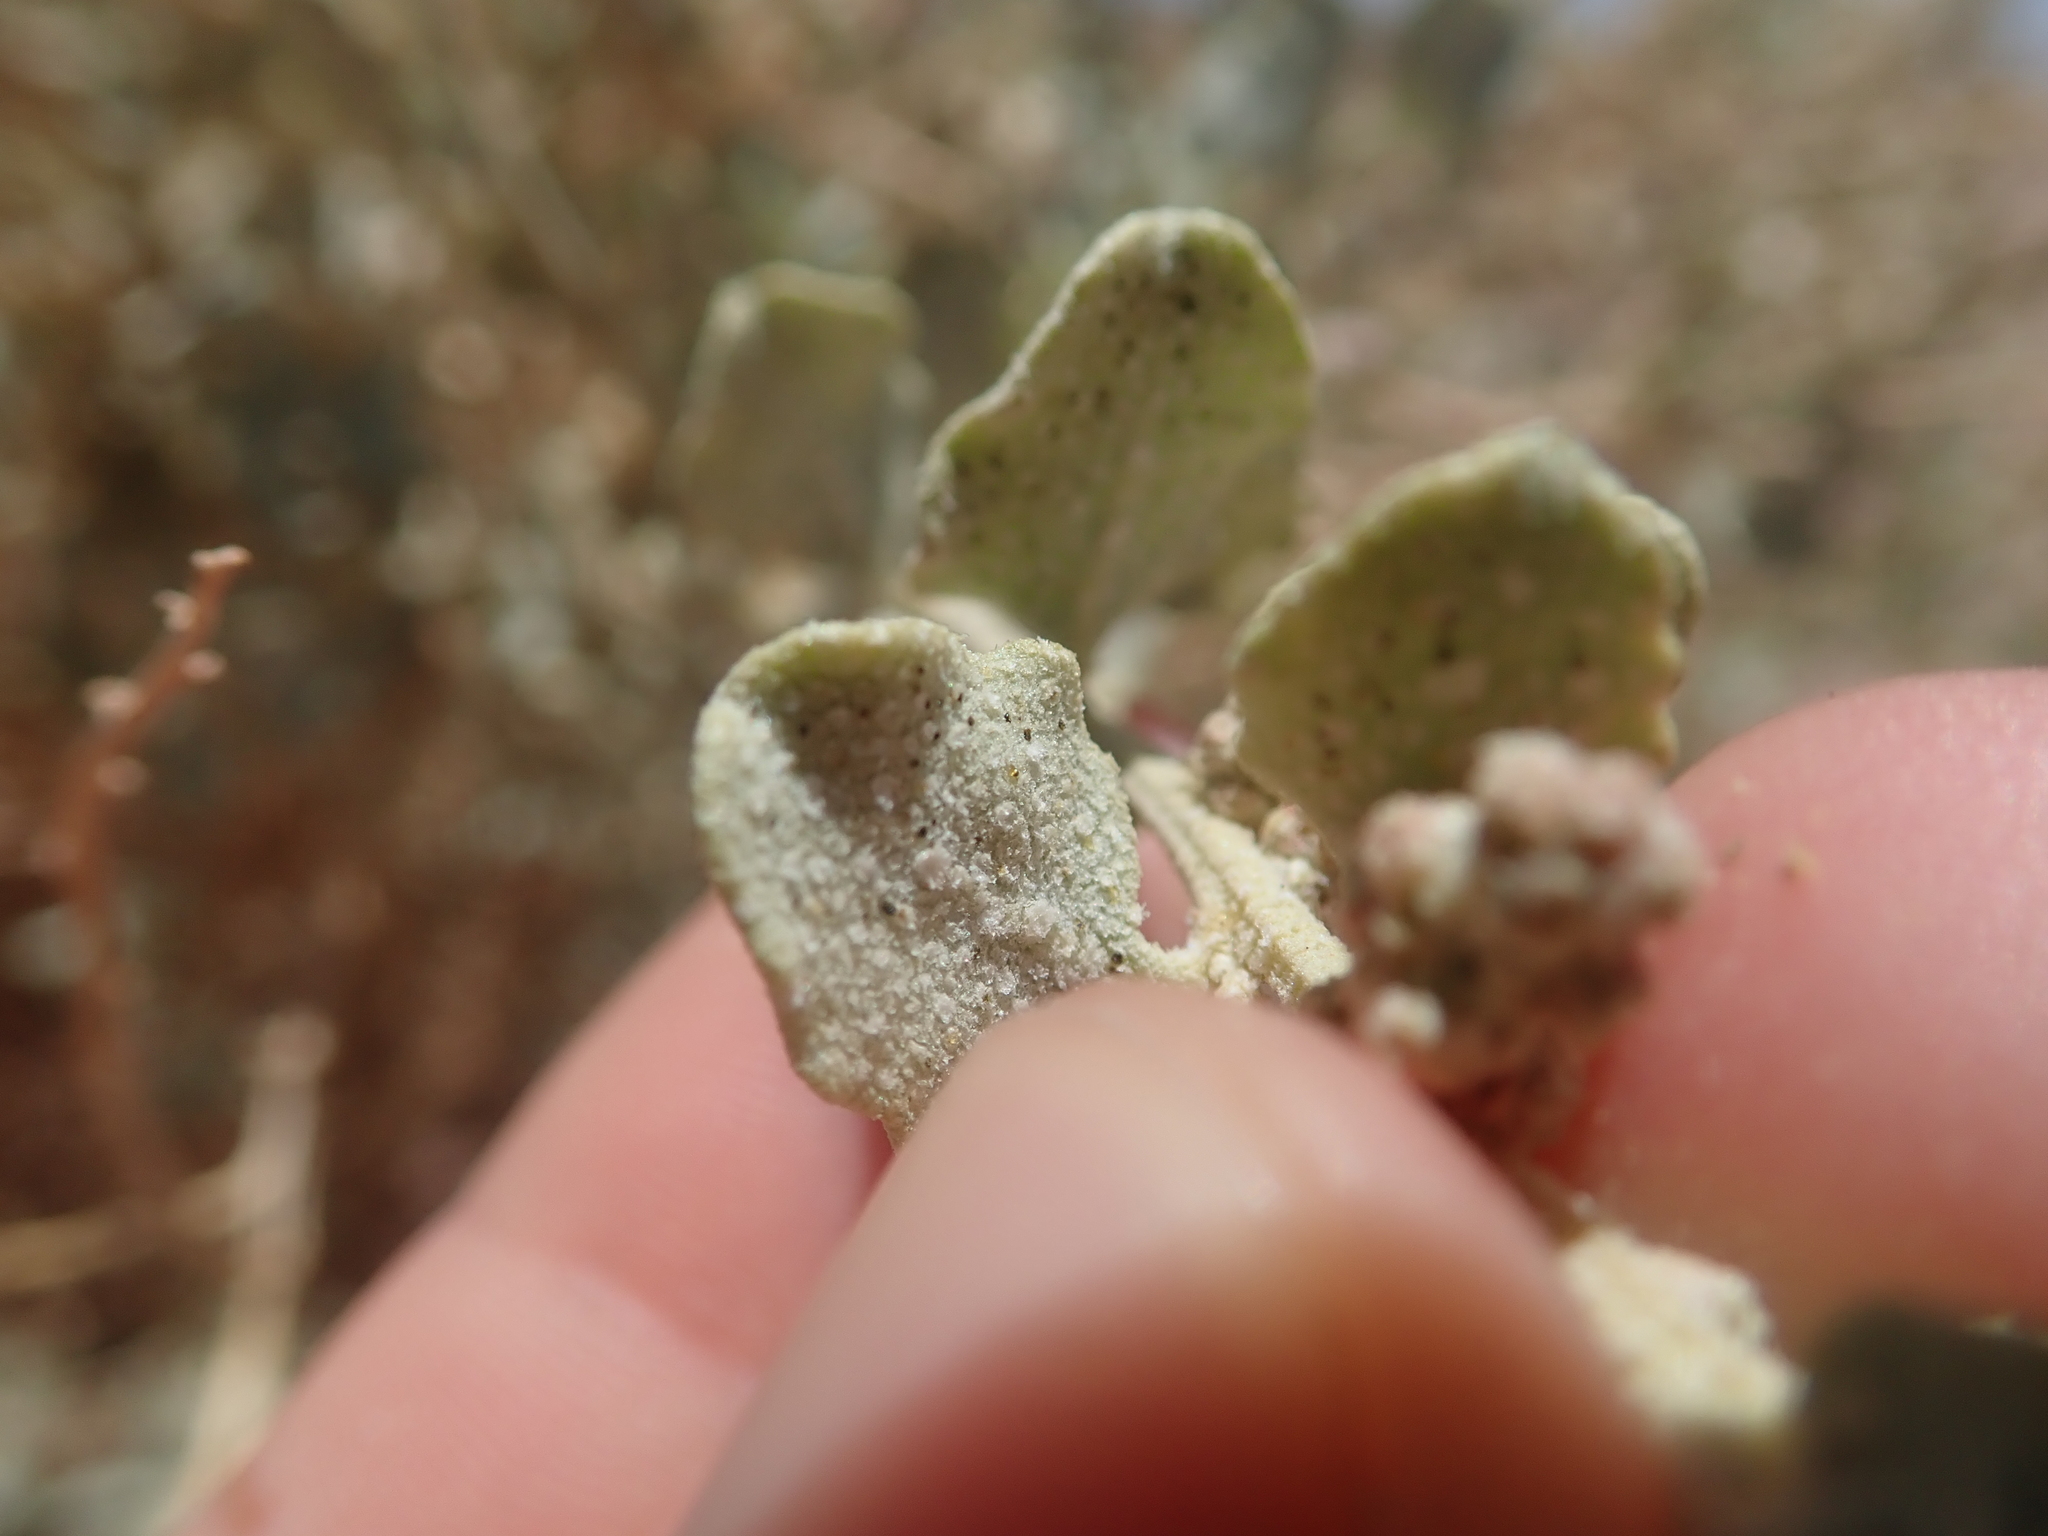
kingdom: Plantae
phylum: Tracheophyta
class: Magnoliopsida
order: Caryophyllales
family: Amaranthaceae
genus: Atriplex
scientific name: Atriplex atacamensis
